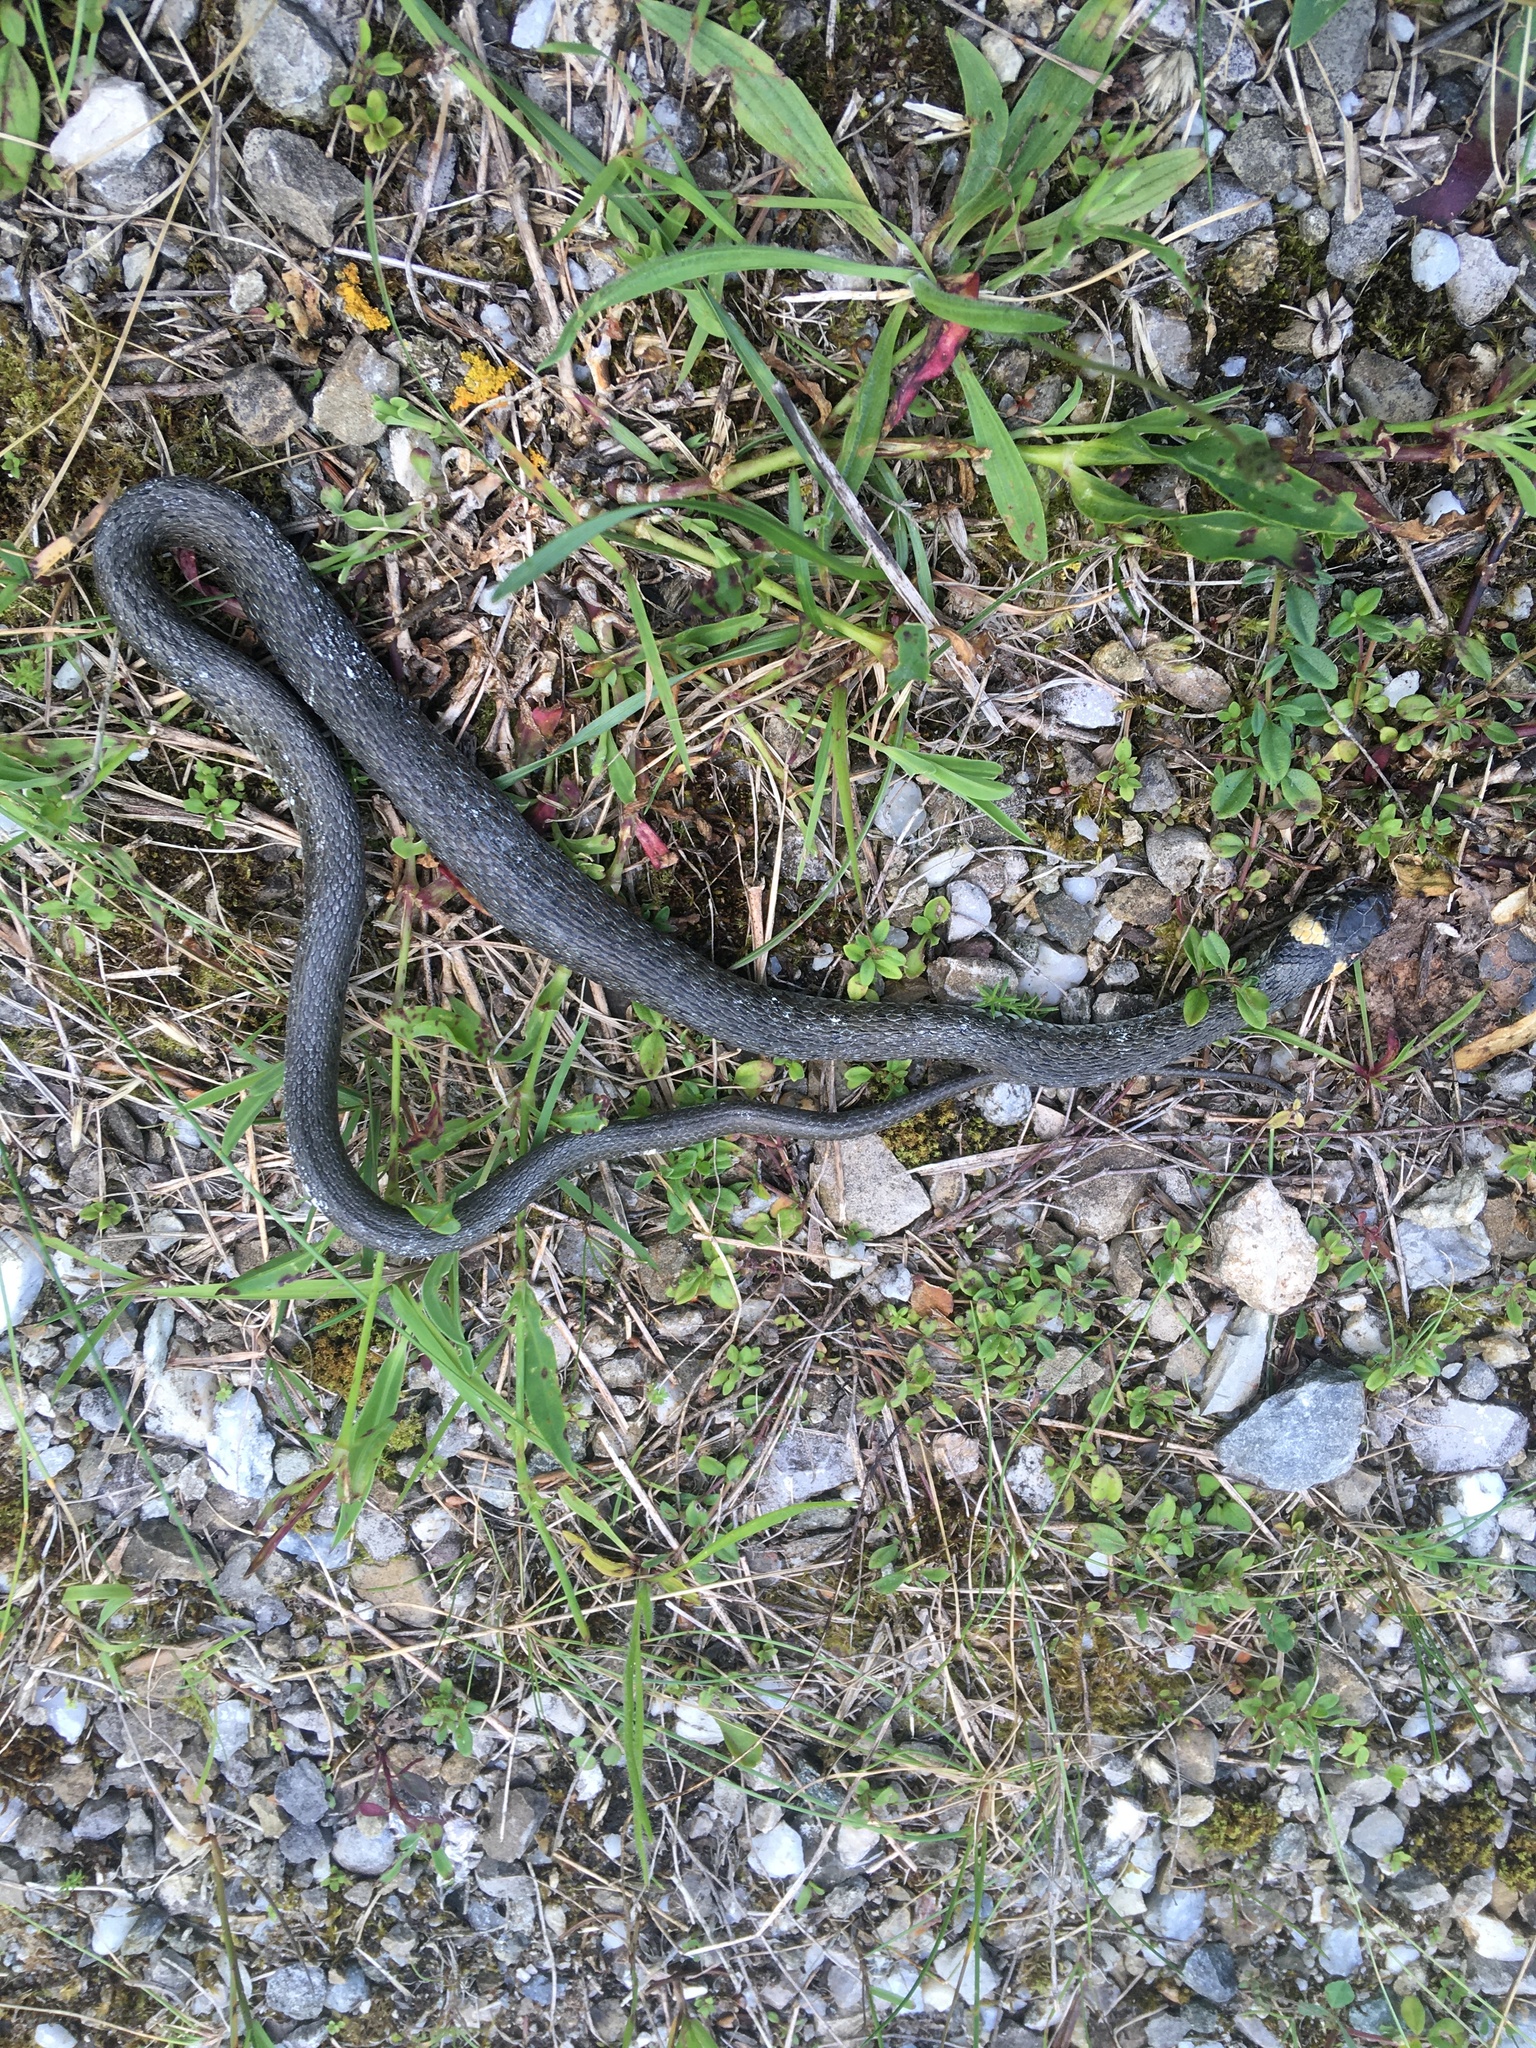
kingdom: Animalia
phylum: Chordata
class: Squamata
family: Colubridae
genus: Natrix
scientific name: Natrix natrix
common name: Grass snake
